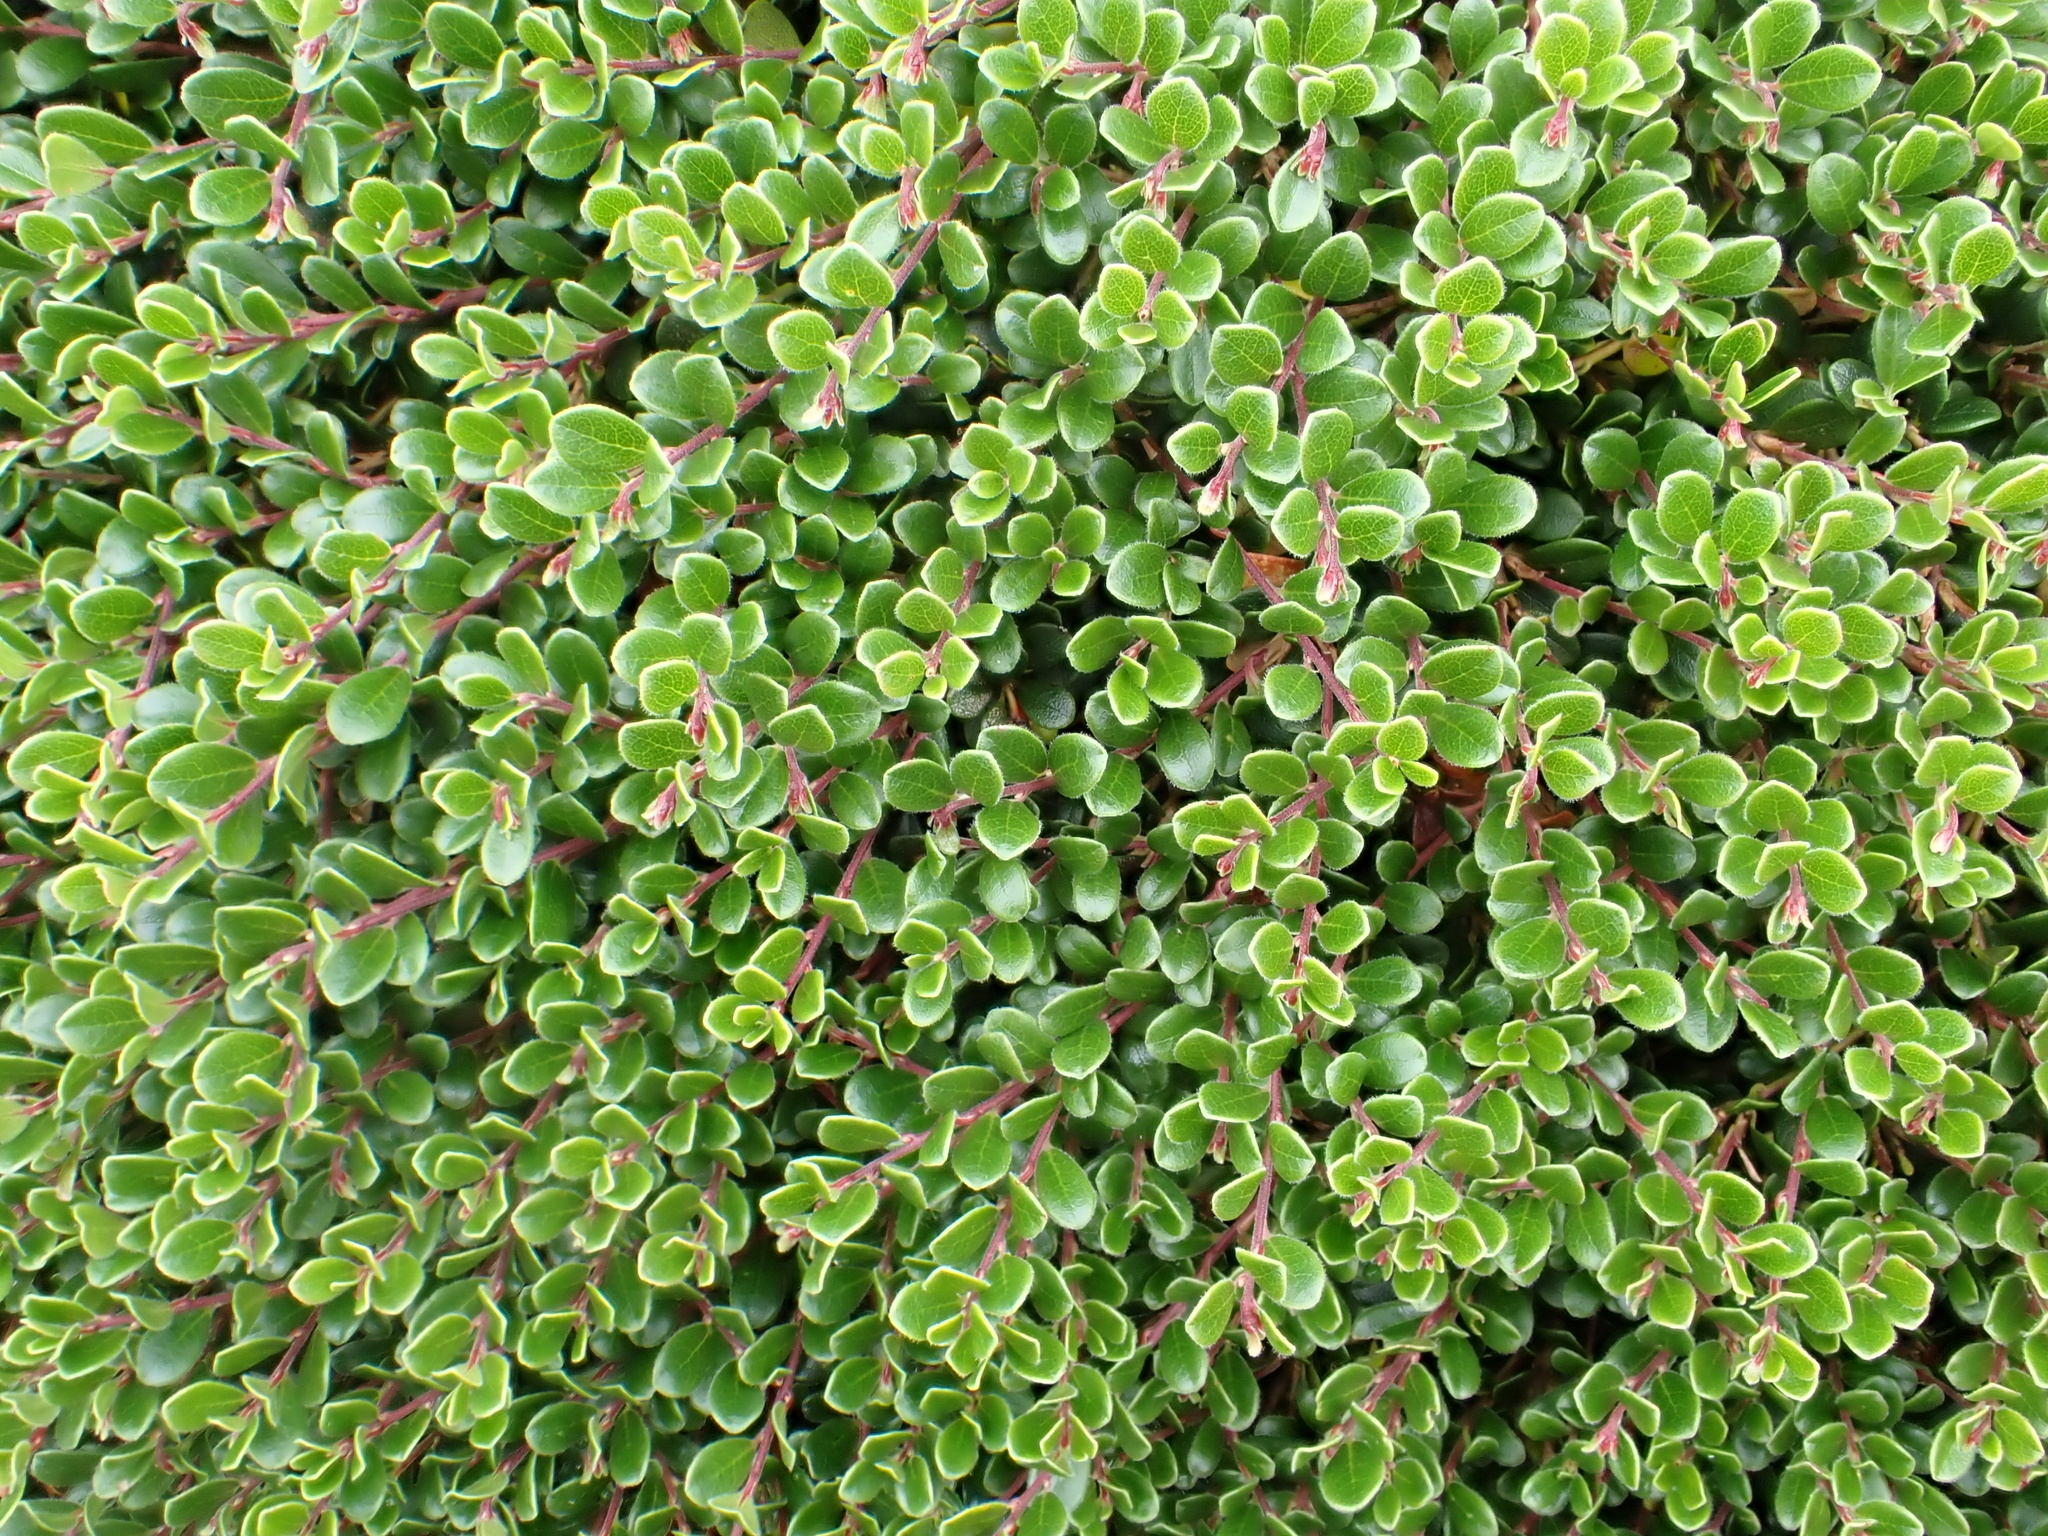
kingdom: Plantae
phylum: Tracheophyta
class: Magnoliopsida
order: Ericales
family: Ericaceae
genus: Arctostaphylos
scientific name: Arctostaphylos uva-ursi
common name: Bearberry
